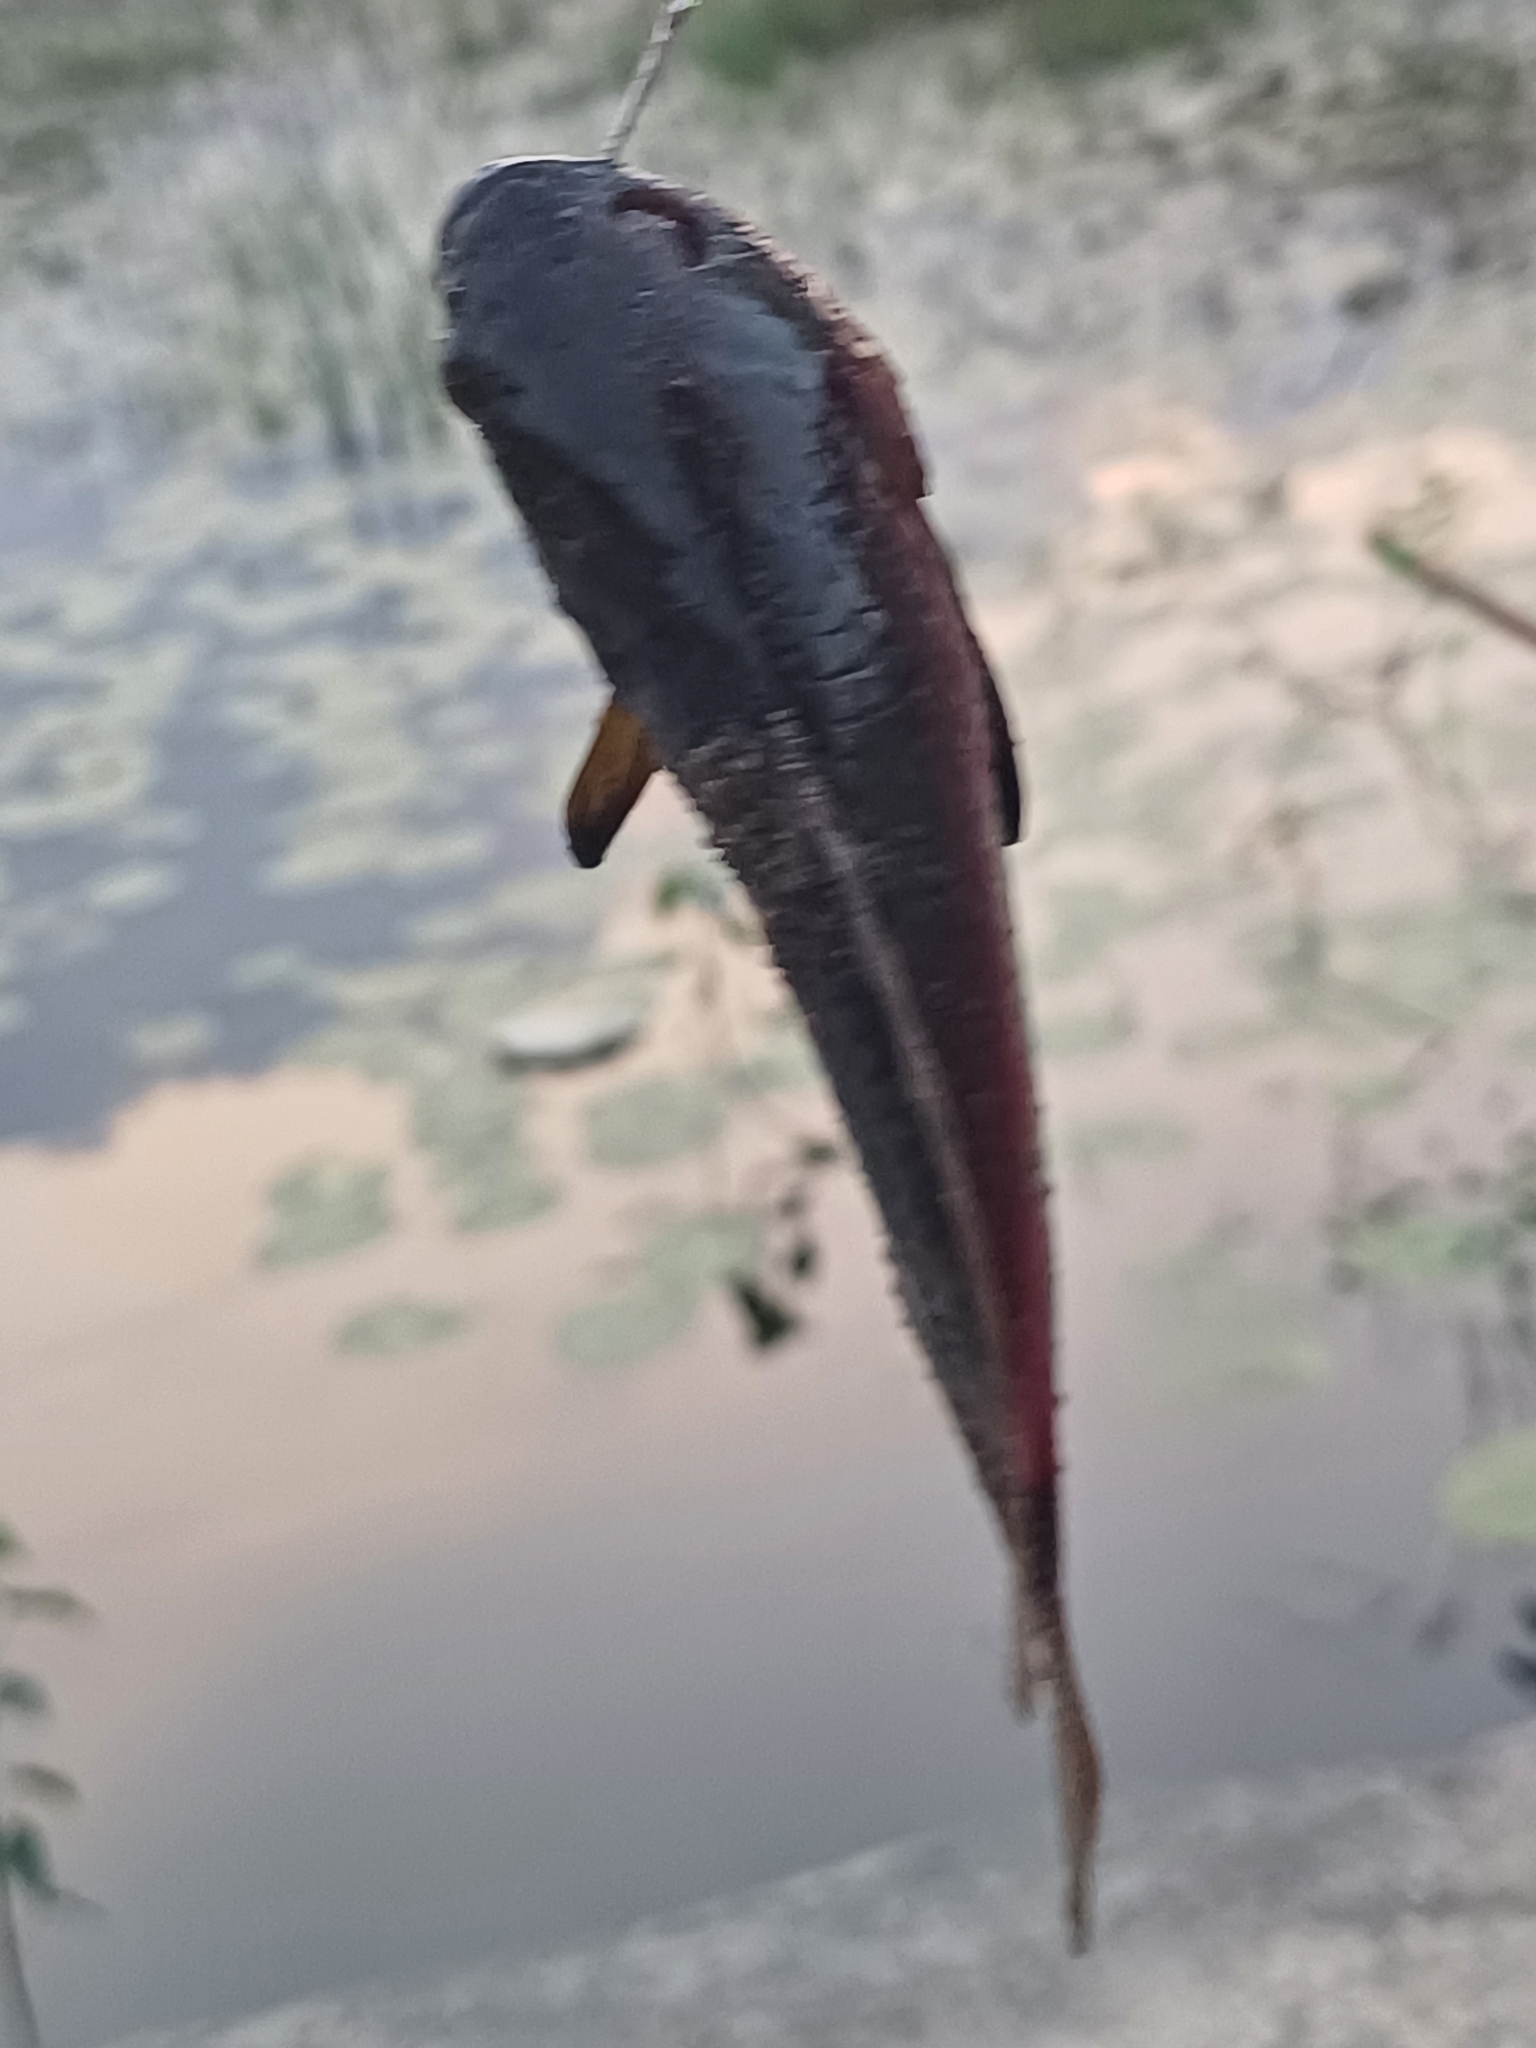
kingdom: Animalia
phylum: Chordata
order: Perciformes
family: Anabantidae
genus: Anabas
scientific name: Anabas testudineus
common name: Climbing perch
